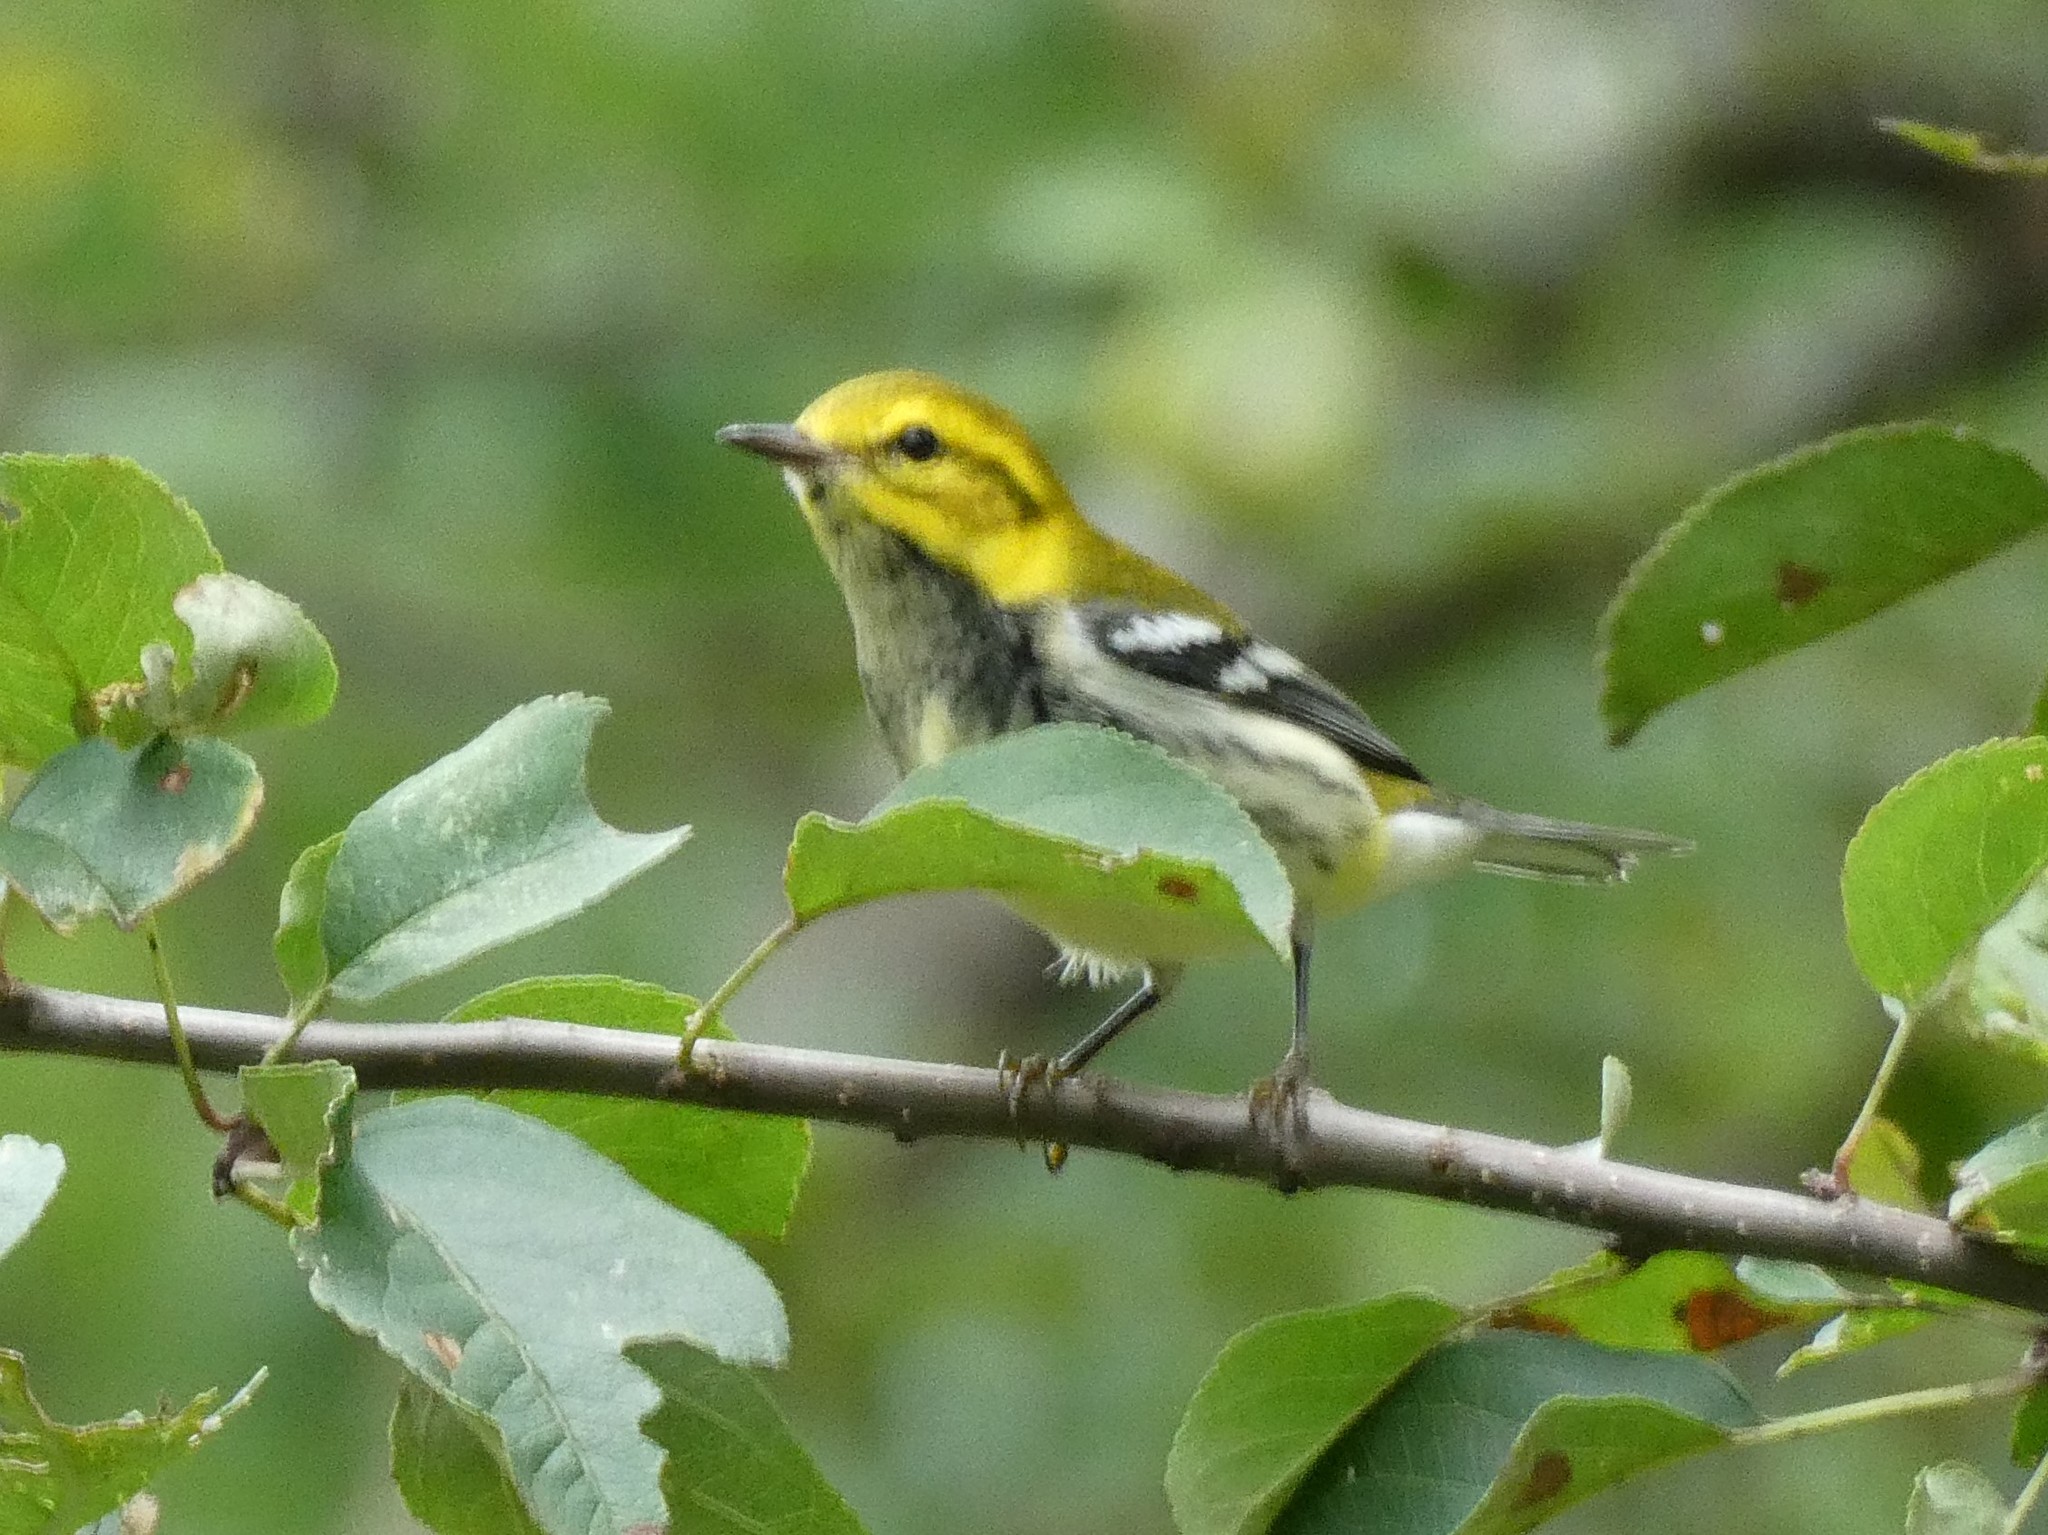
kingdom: Animalia
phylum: Chordata
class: Aves
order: Passeriformes
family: Parulidae
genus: Setophaga
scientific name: Setophaga virens
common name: Black-throated green warbler
